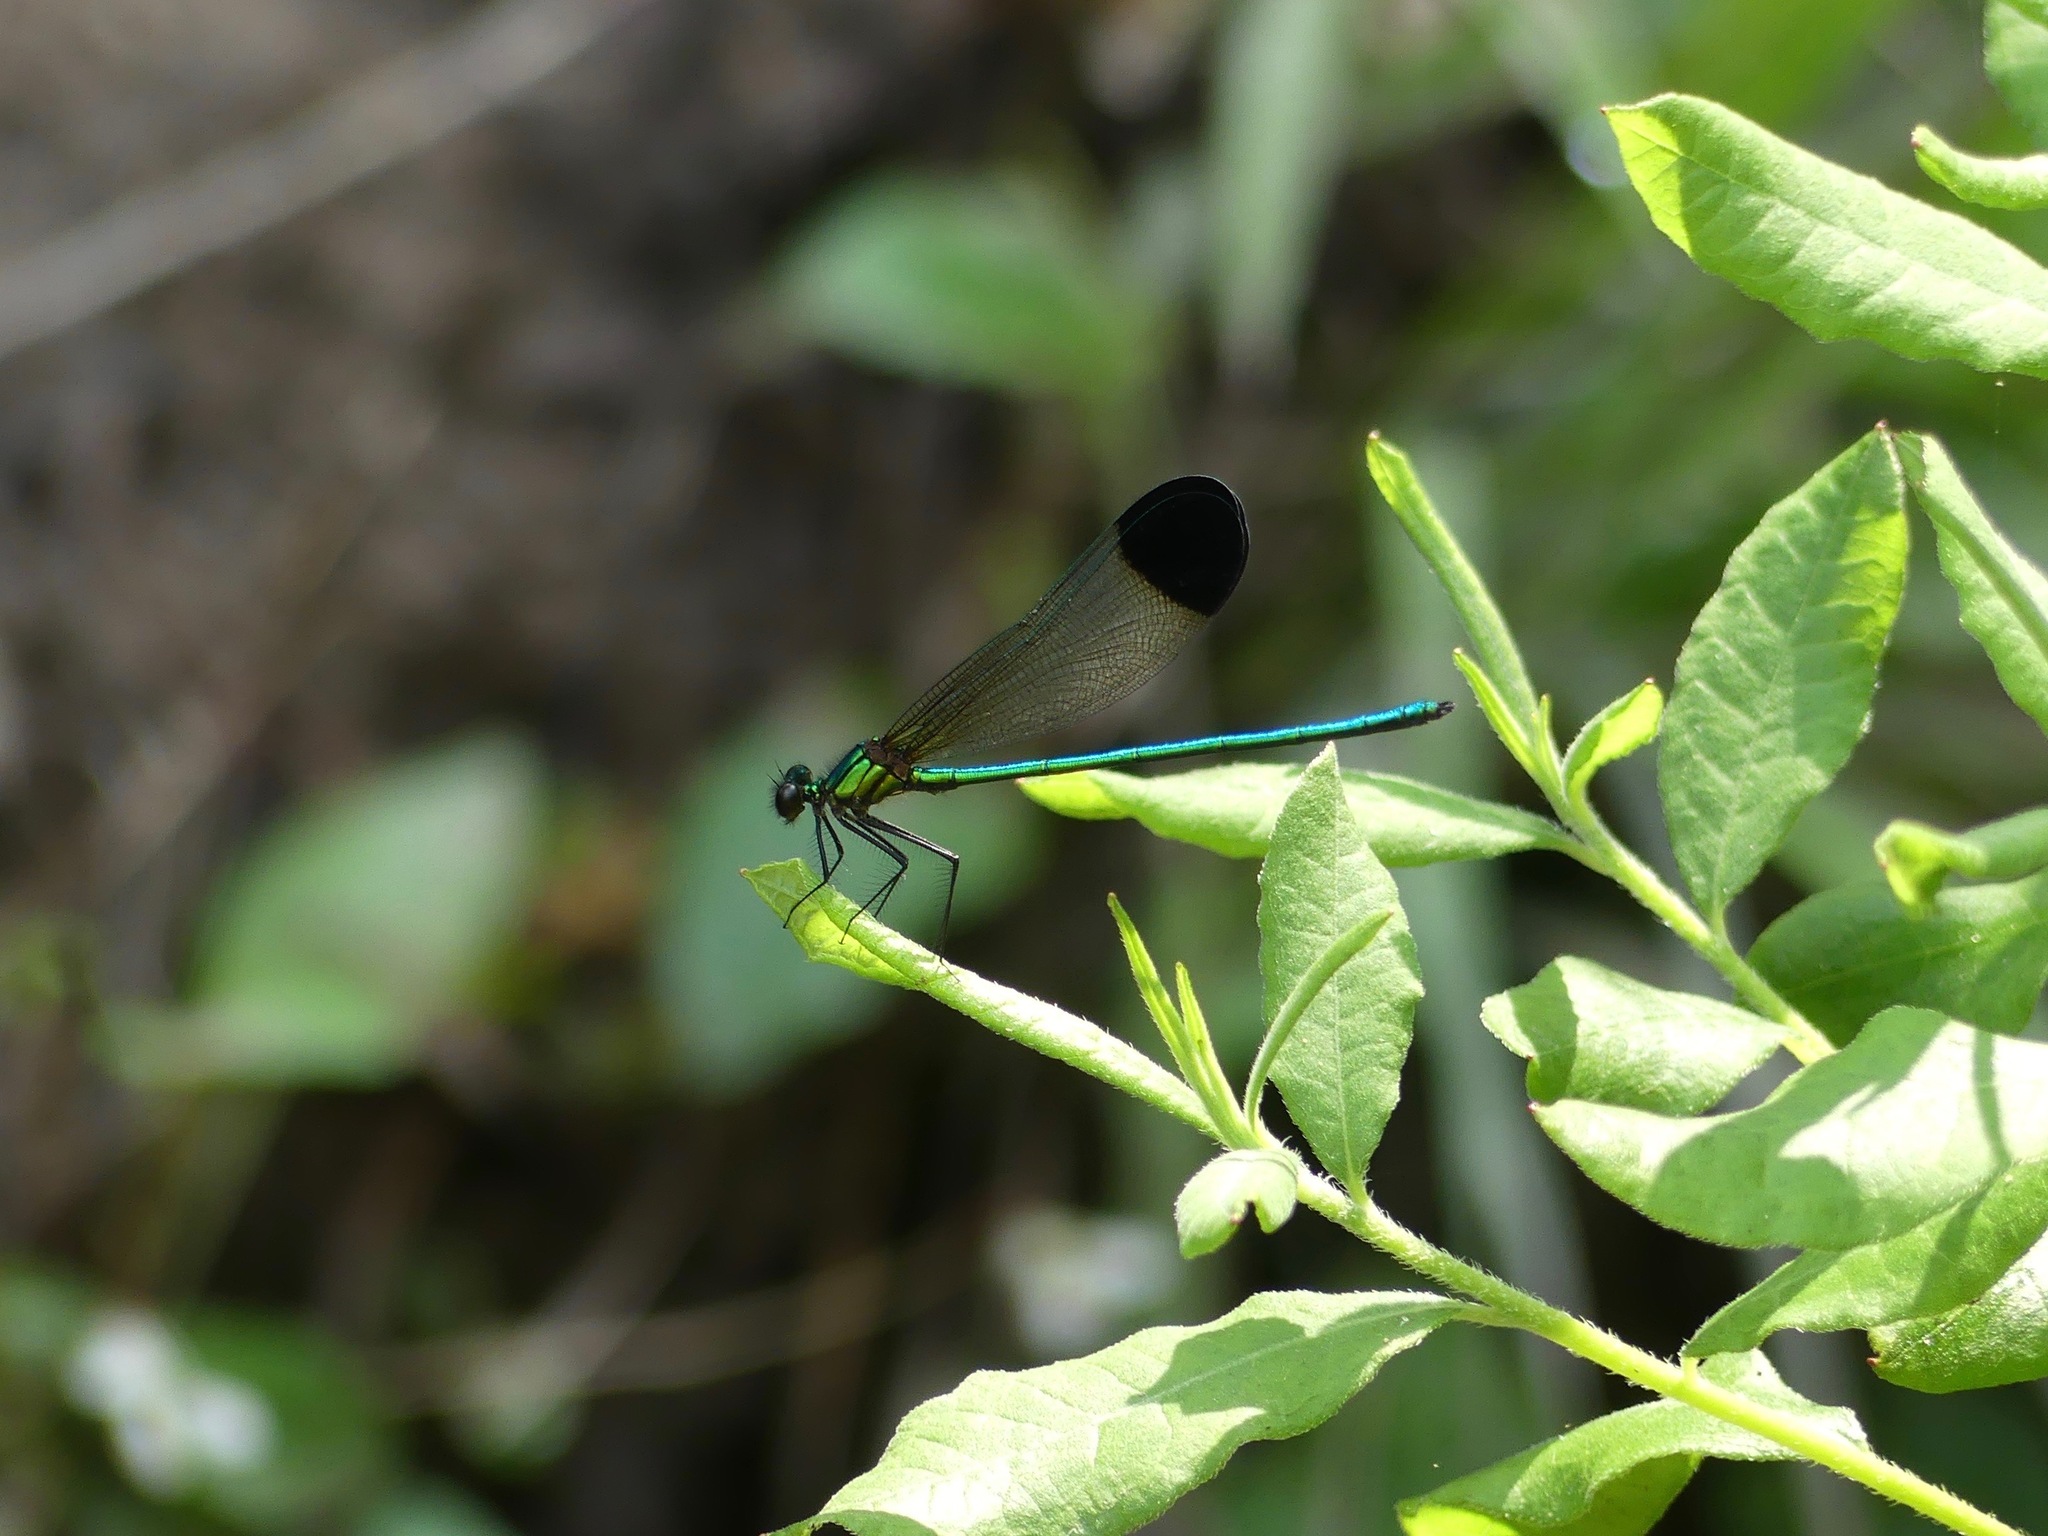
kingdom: Animalia
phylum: Arthropoda
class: Insecta
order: Odonata
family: Calopterygidae
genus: Calopteryx
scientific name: Calopteryx dimidiata
